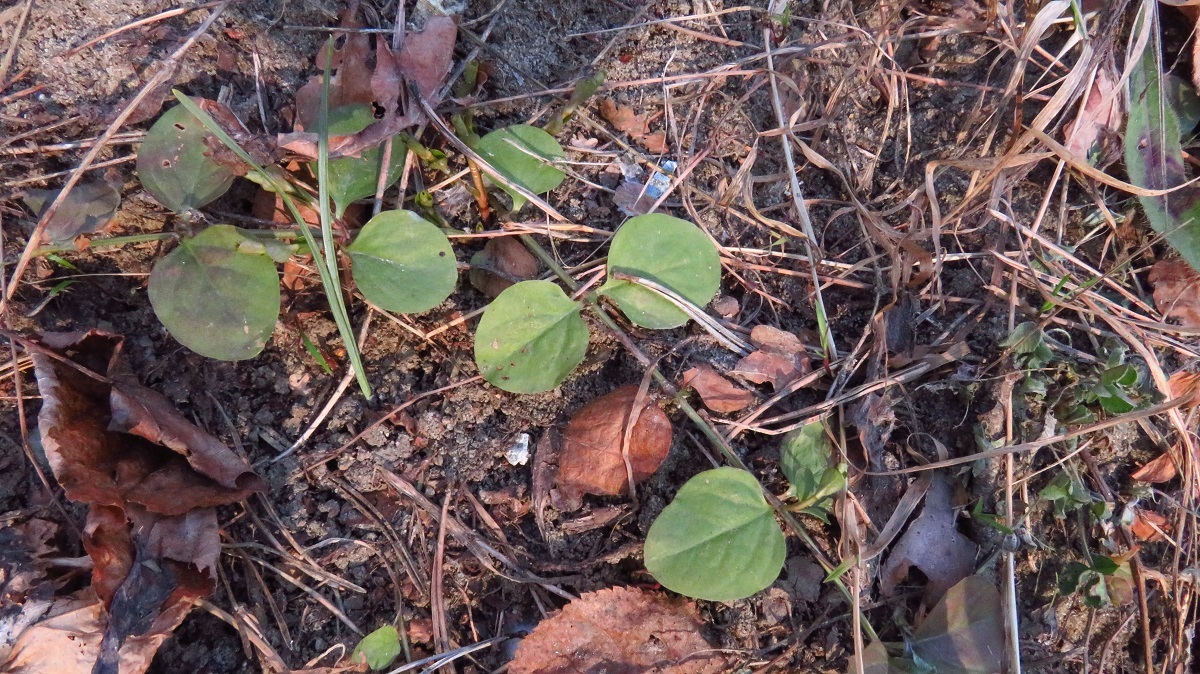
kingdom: Plantae
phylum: Tracheophyta
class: Magnoliopsida
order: Ericales
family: Primulaceae
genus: Lysimachia
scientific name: Lysimachia nummularia
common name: Moneywort
